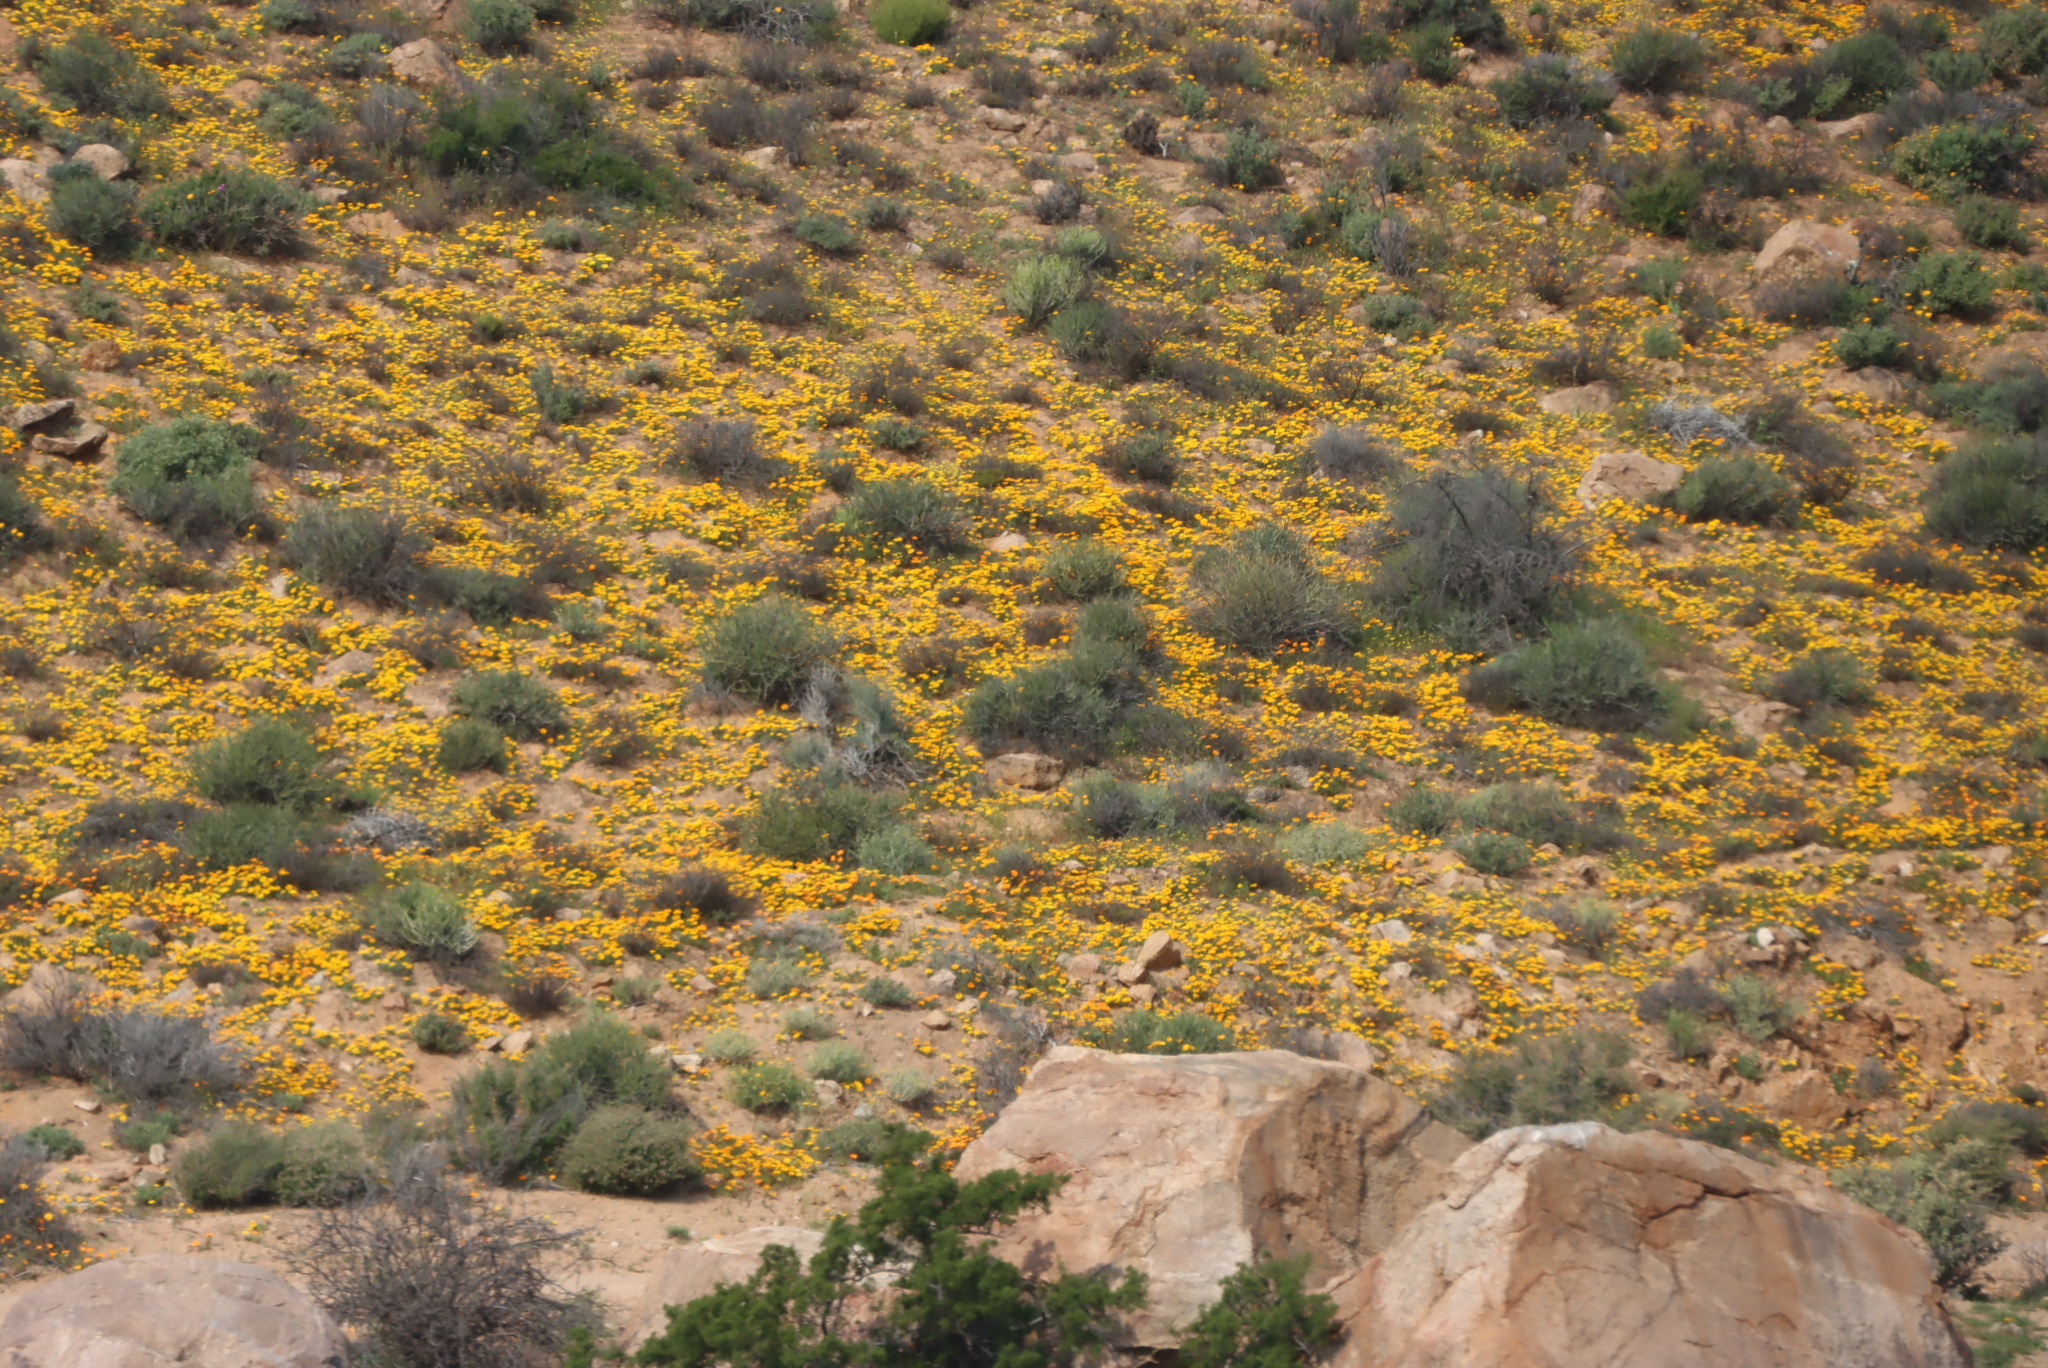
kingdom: Plantae
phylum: Tracheophyta
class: Magnoliopsida
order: Asterales
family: Asteraceae
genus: Dimorphotheca
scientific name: Dimorphotheca sinuata
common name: Glandular cape marigold
